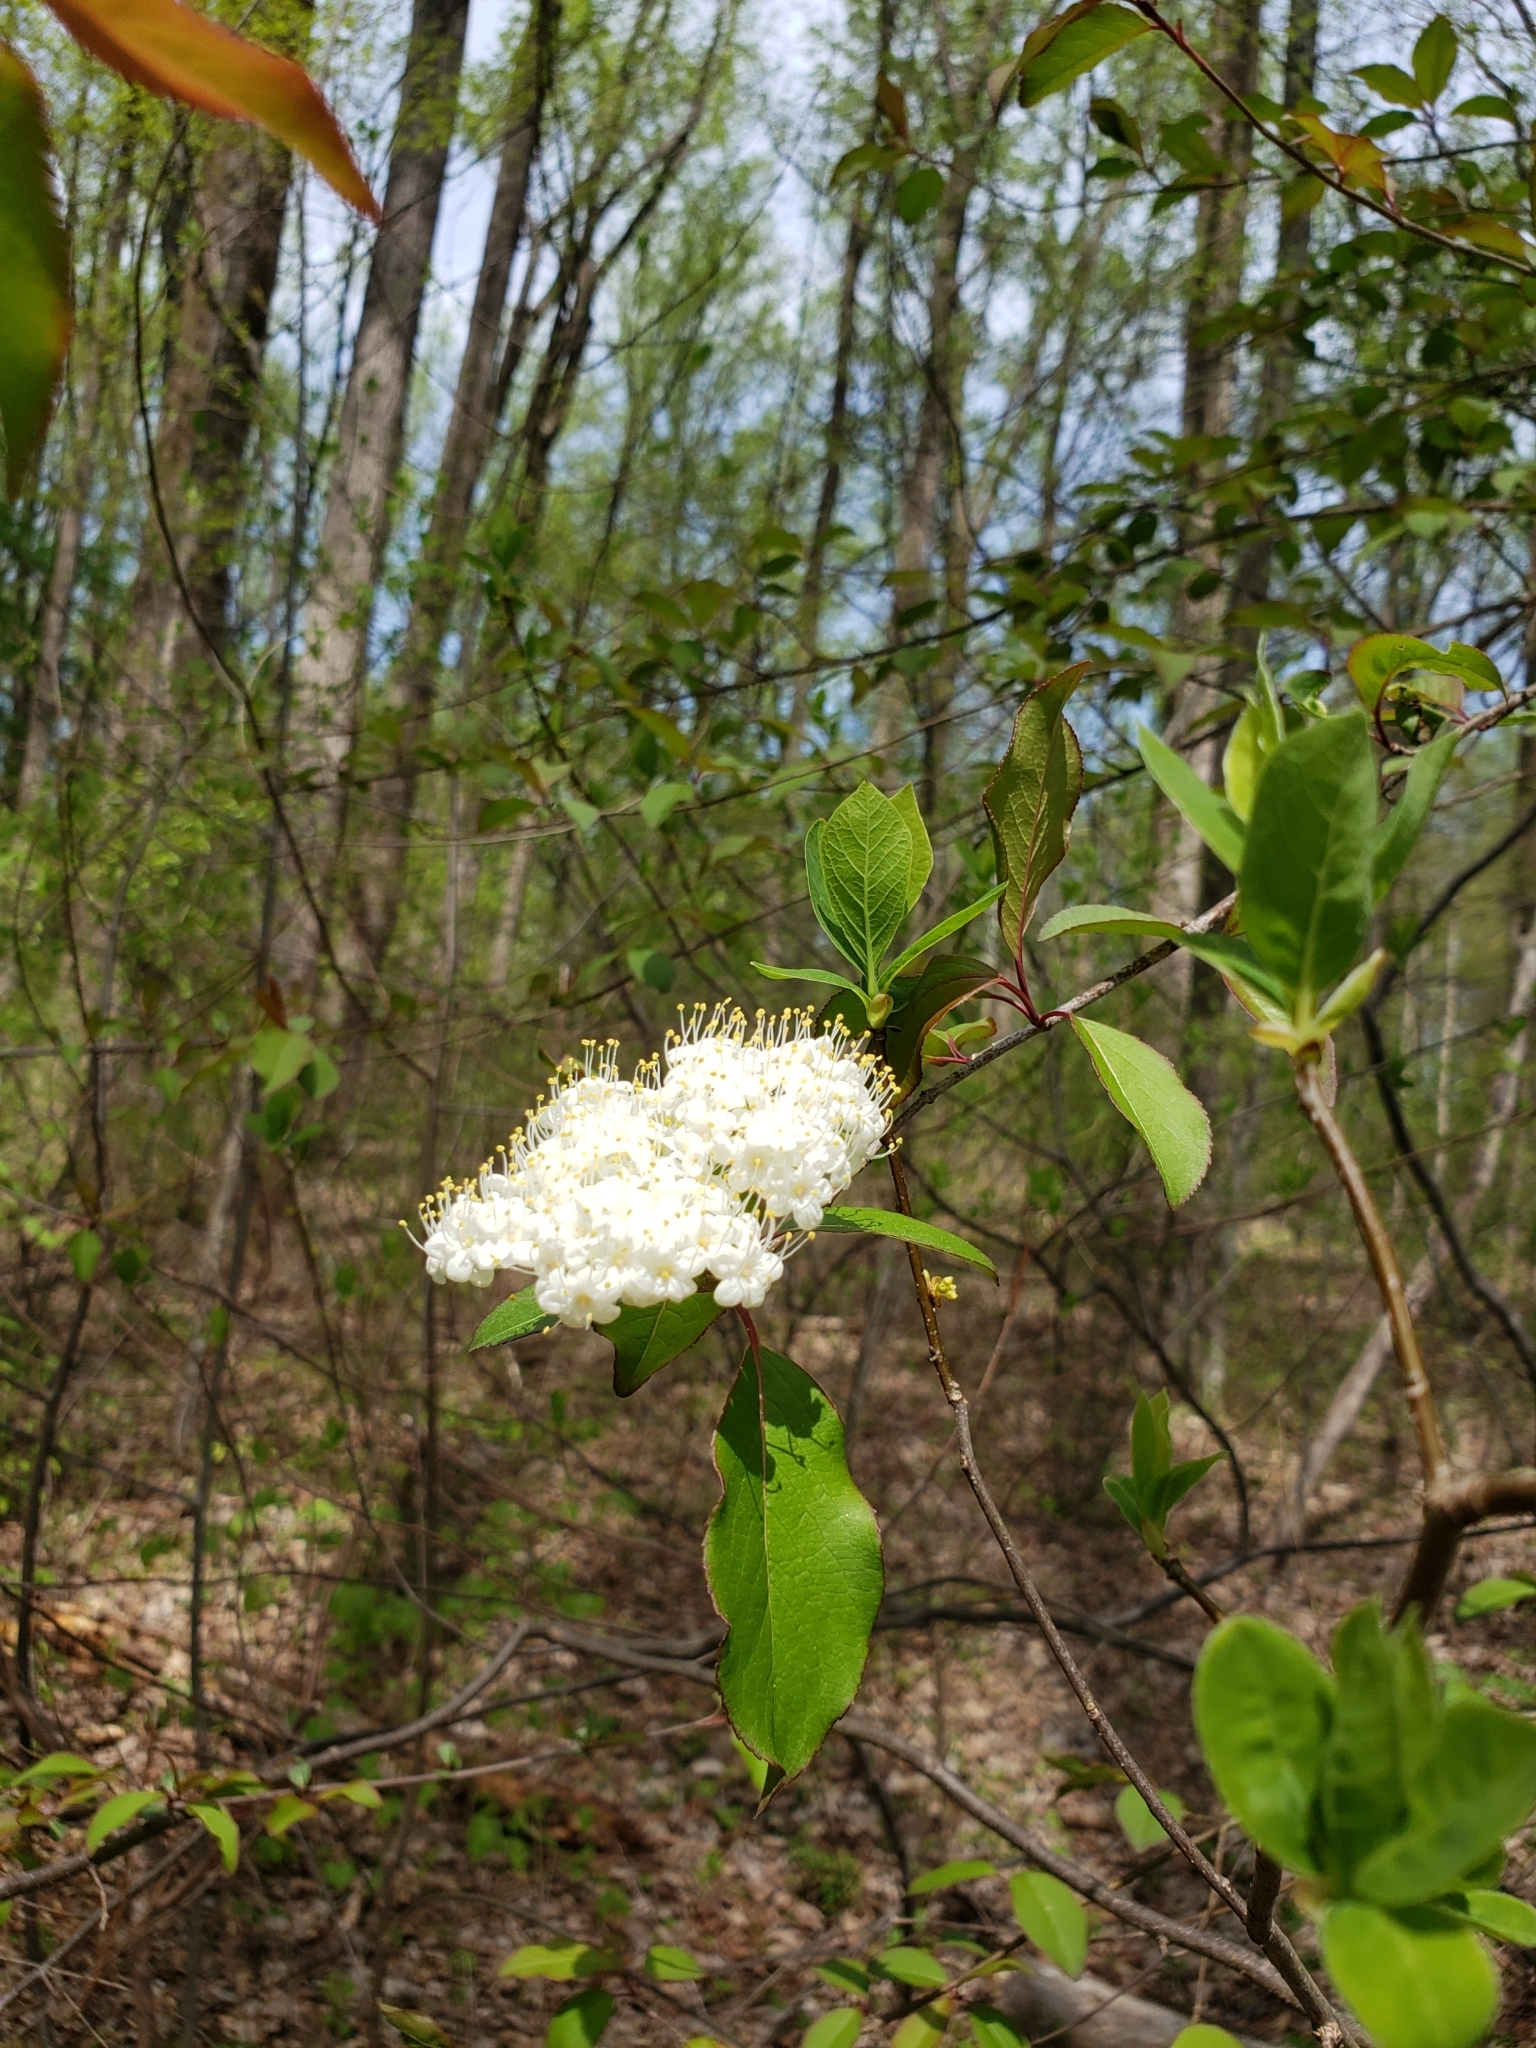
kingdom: Plantae
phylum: Tracheophyta
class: Magnoliopsida
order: Dipsacales
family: Viburnaceae
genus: Viburnum
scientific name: Viburnum prunifolium
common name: Black haw
